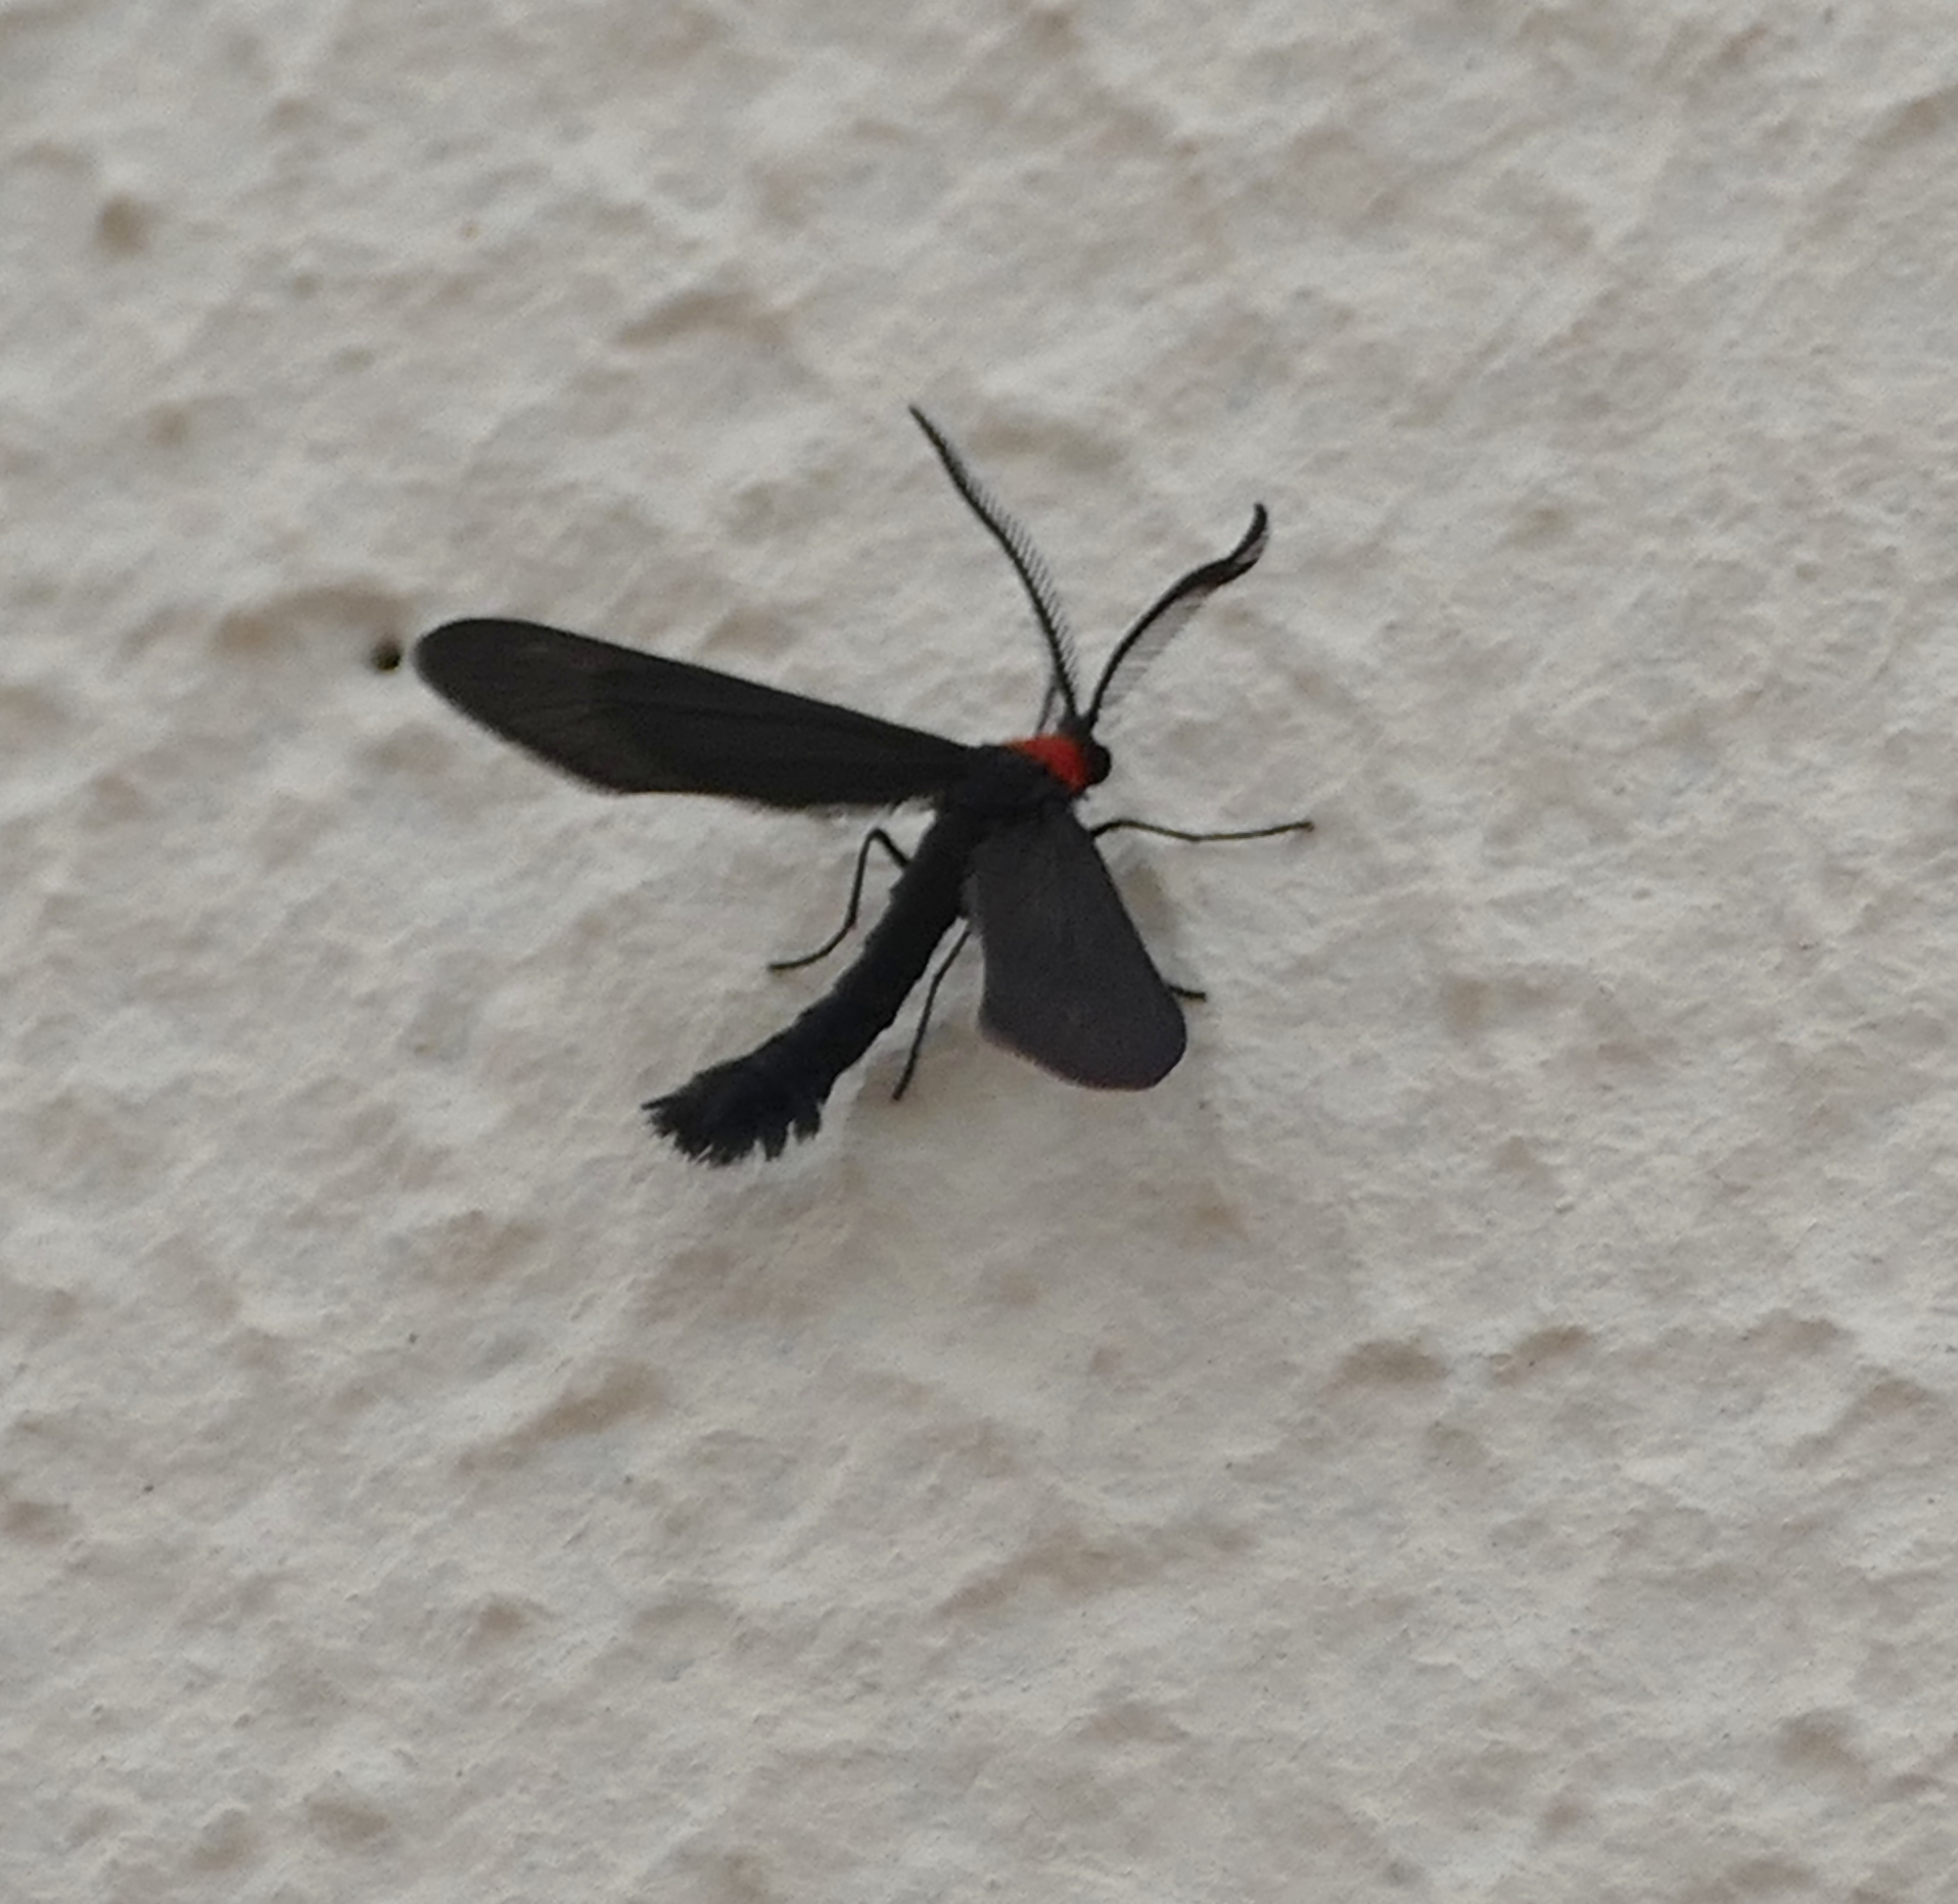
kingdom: Animalia
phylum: Arthropoda
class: Insecta
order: Lepidoptera
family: Zygaenidae
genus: Harrisina
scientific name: Harrisina americana
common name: Grapeleaf skeletonizer moth
